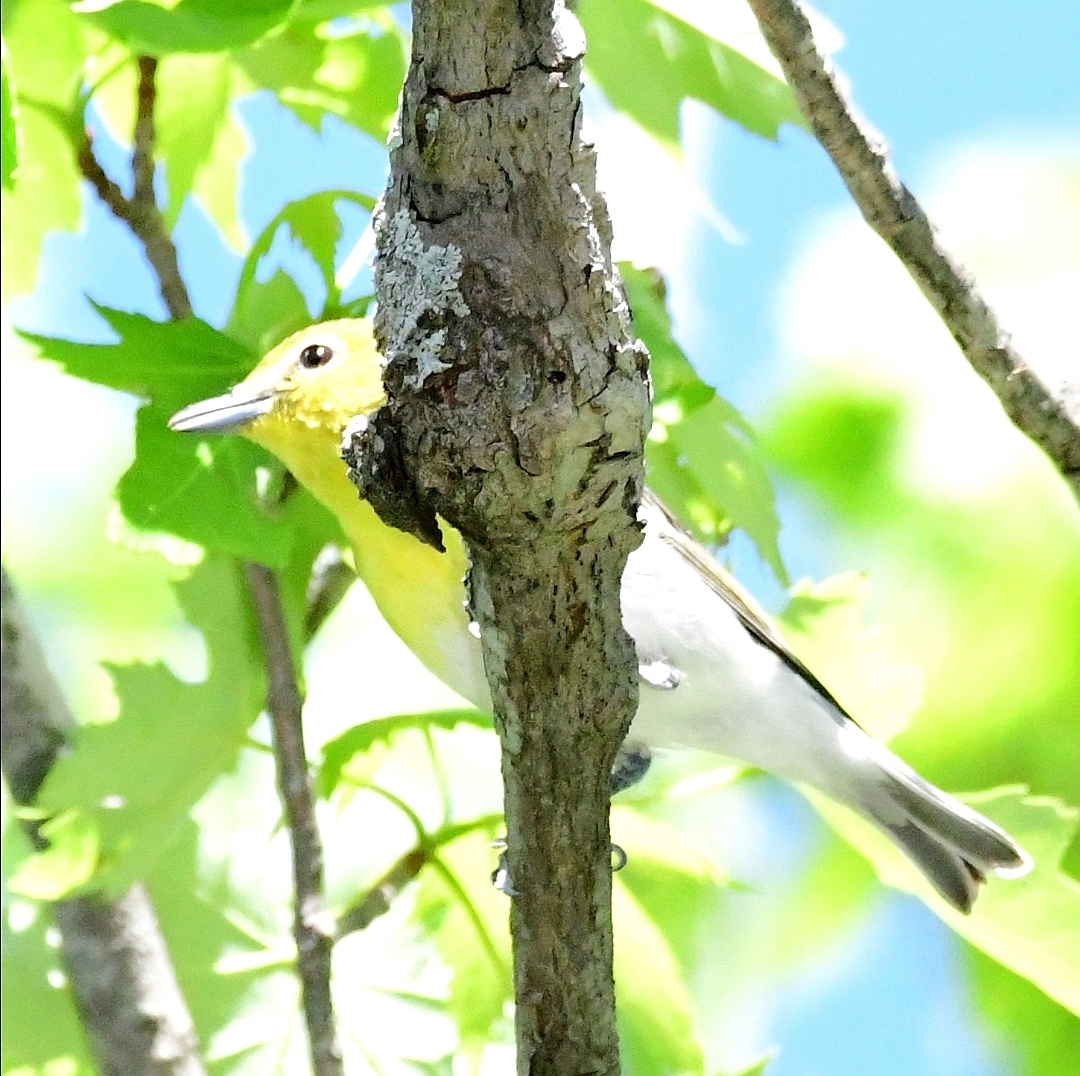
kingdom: Animalia
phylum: Chordata
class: Aves
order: Passeriformes
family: Vireonidae
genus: Vireo
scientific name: Vireo flavifrons
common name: Yellow-throated vireo
